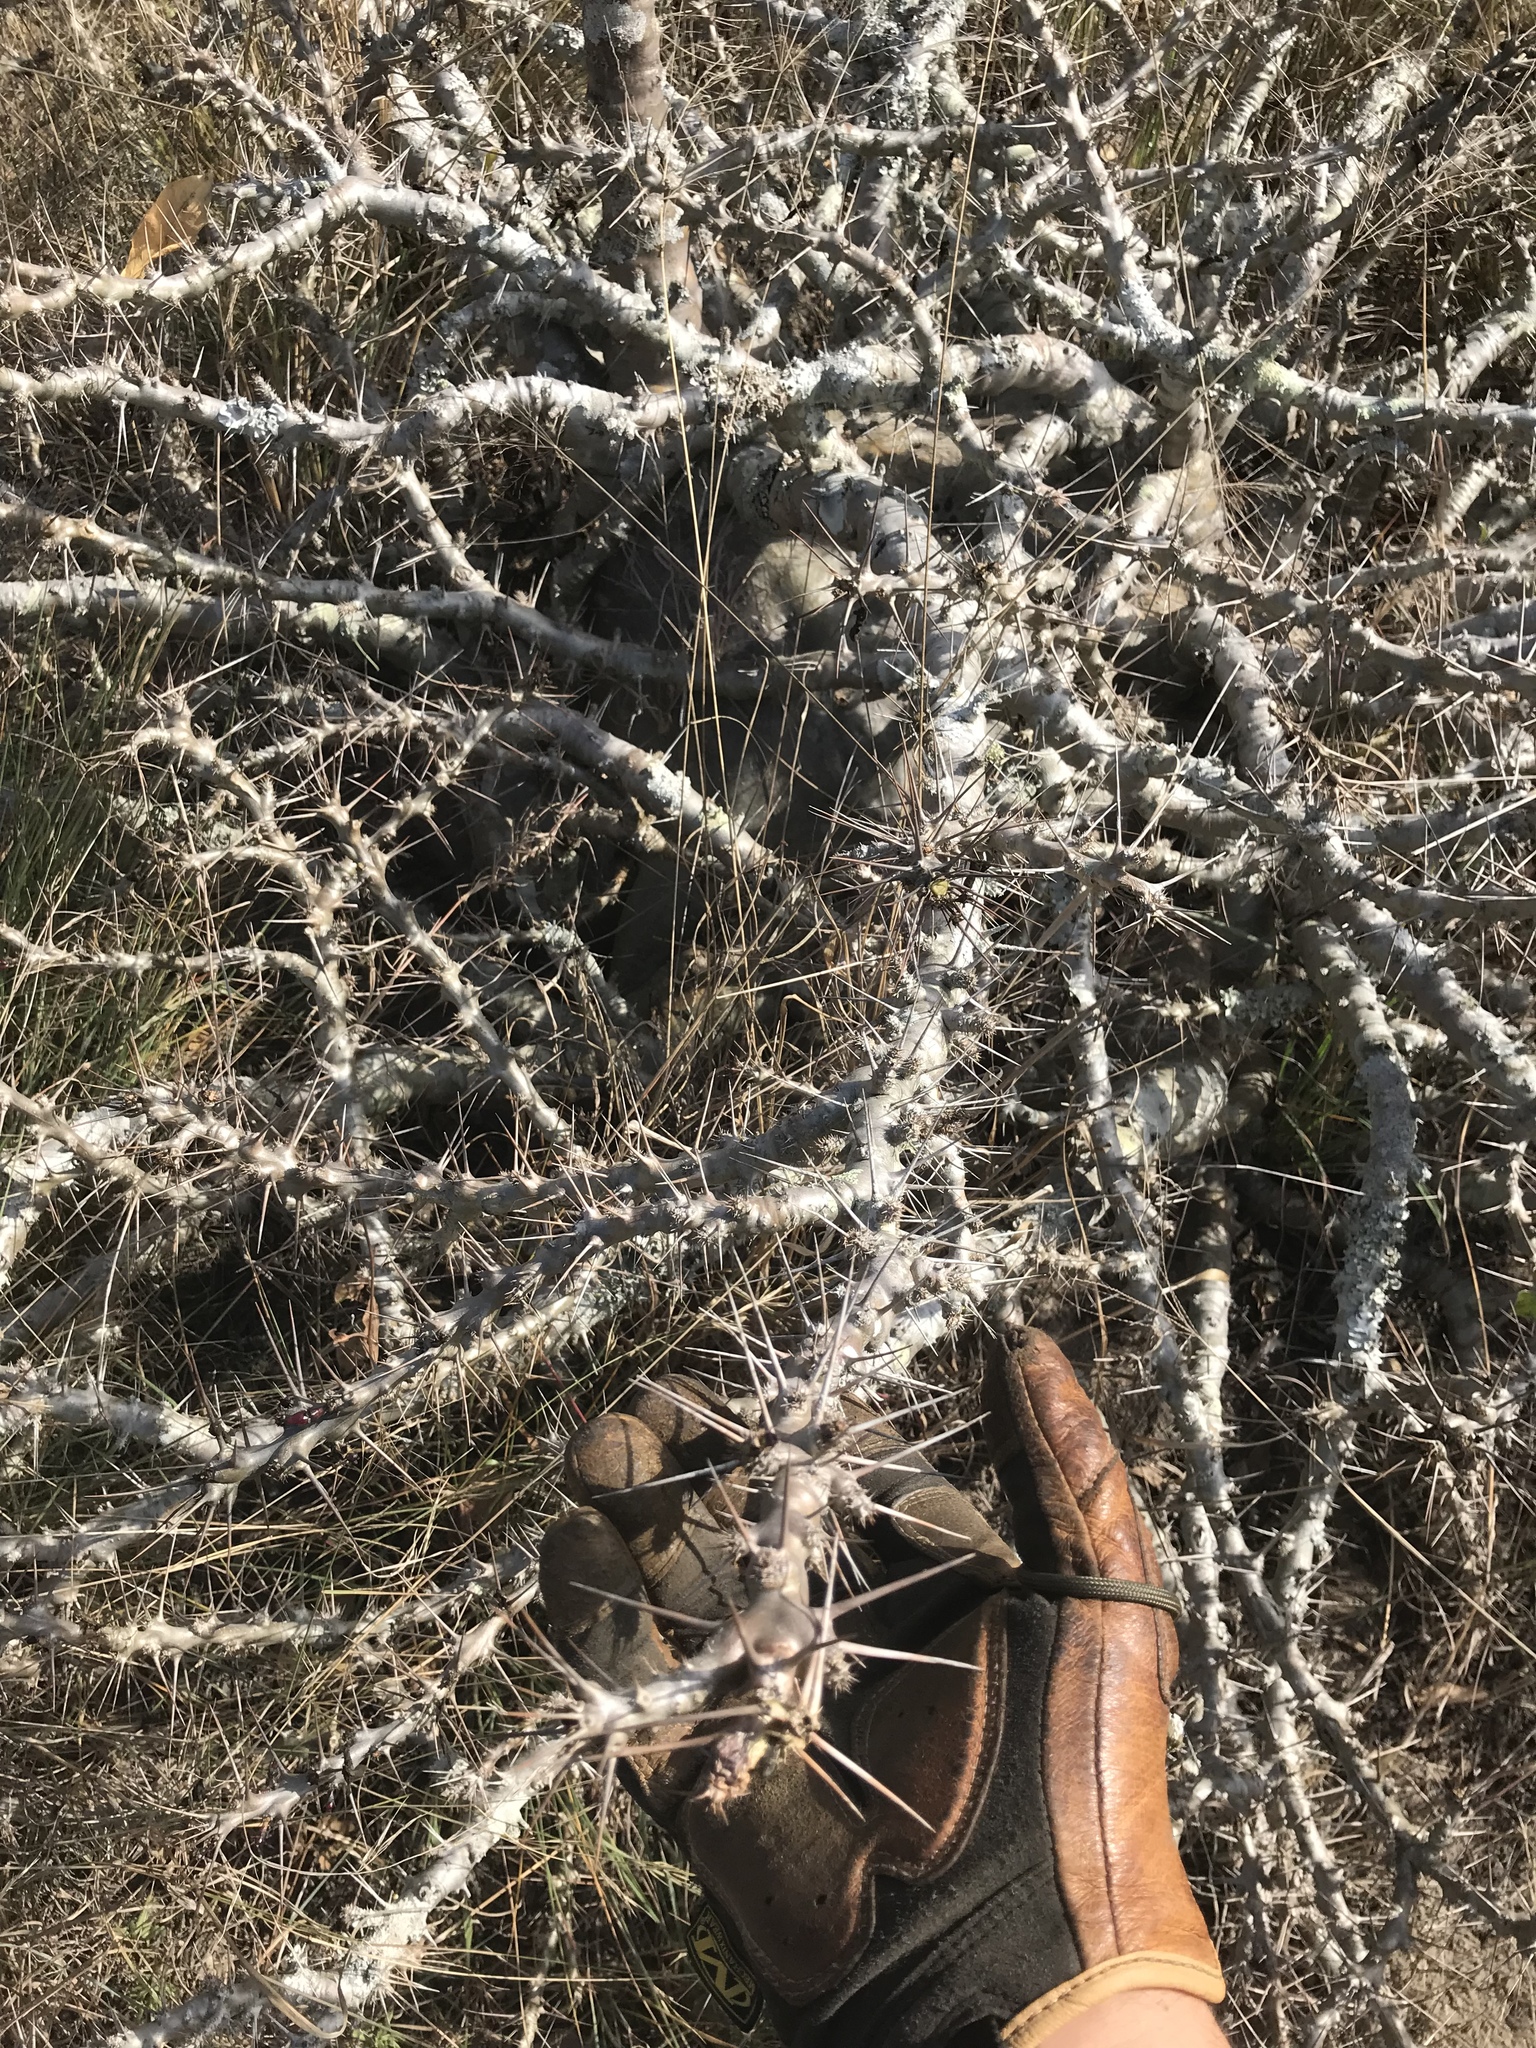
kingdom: Plantae
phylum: Tracheophyta
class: Magnoliopsida
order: Gentianales
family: Apocynaceae
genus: Pachypodium
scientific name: Pachypodium saundersii
